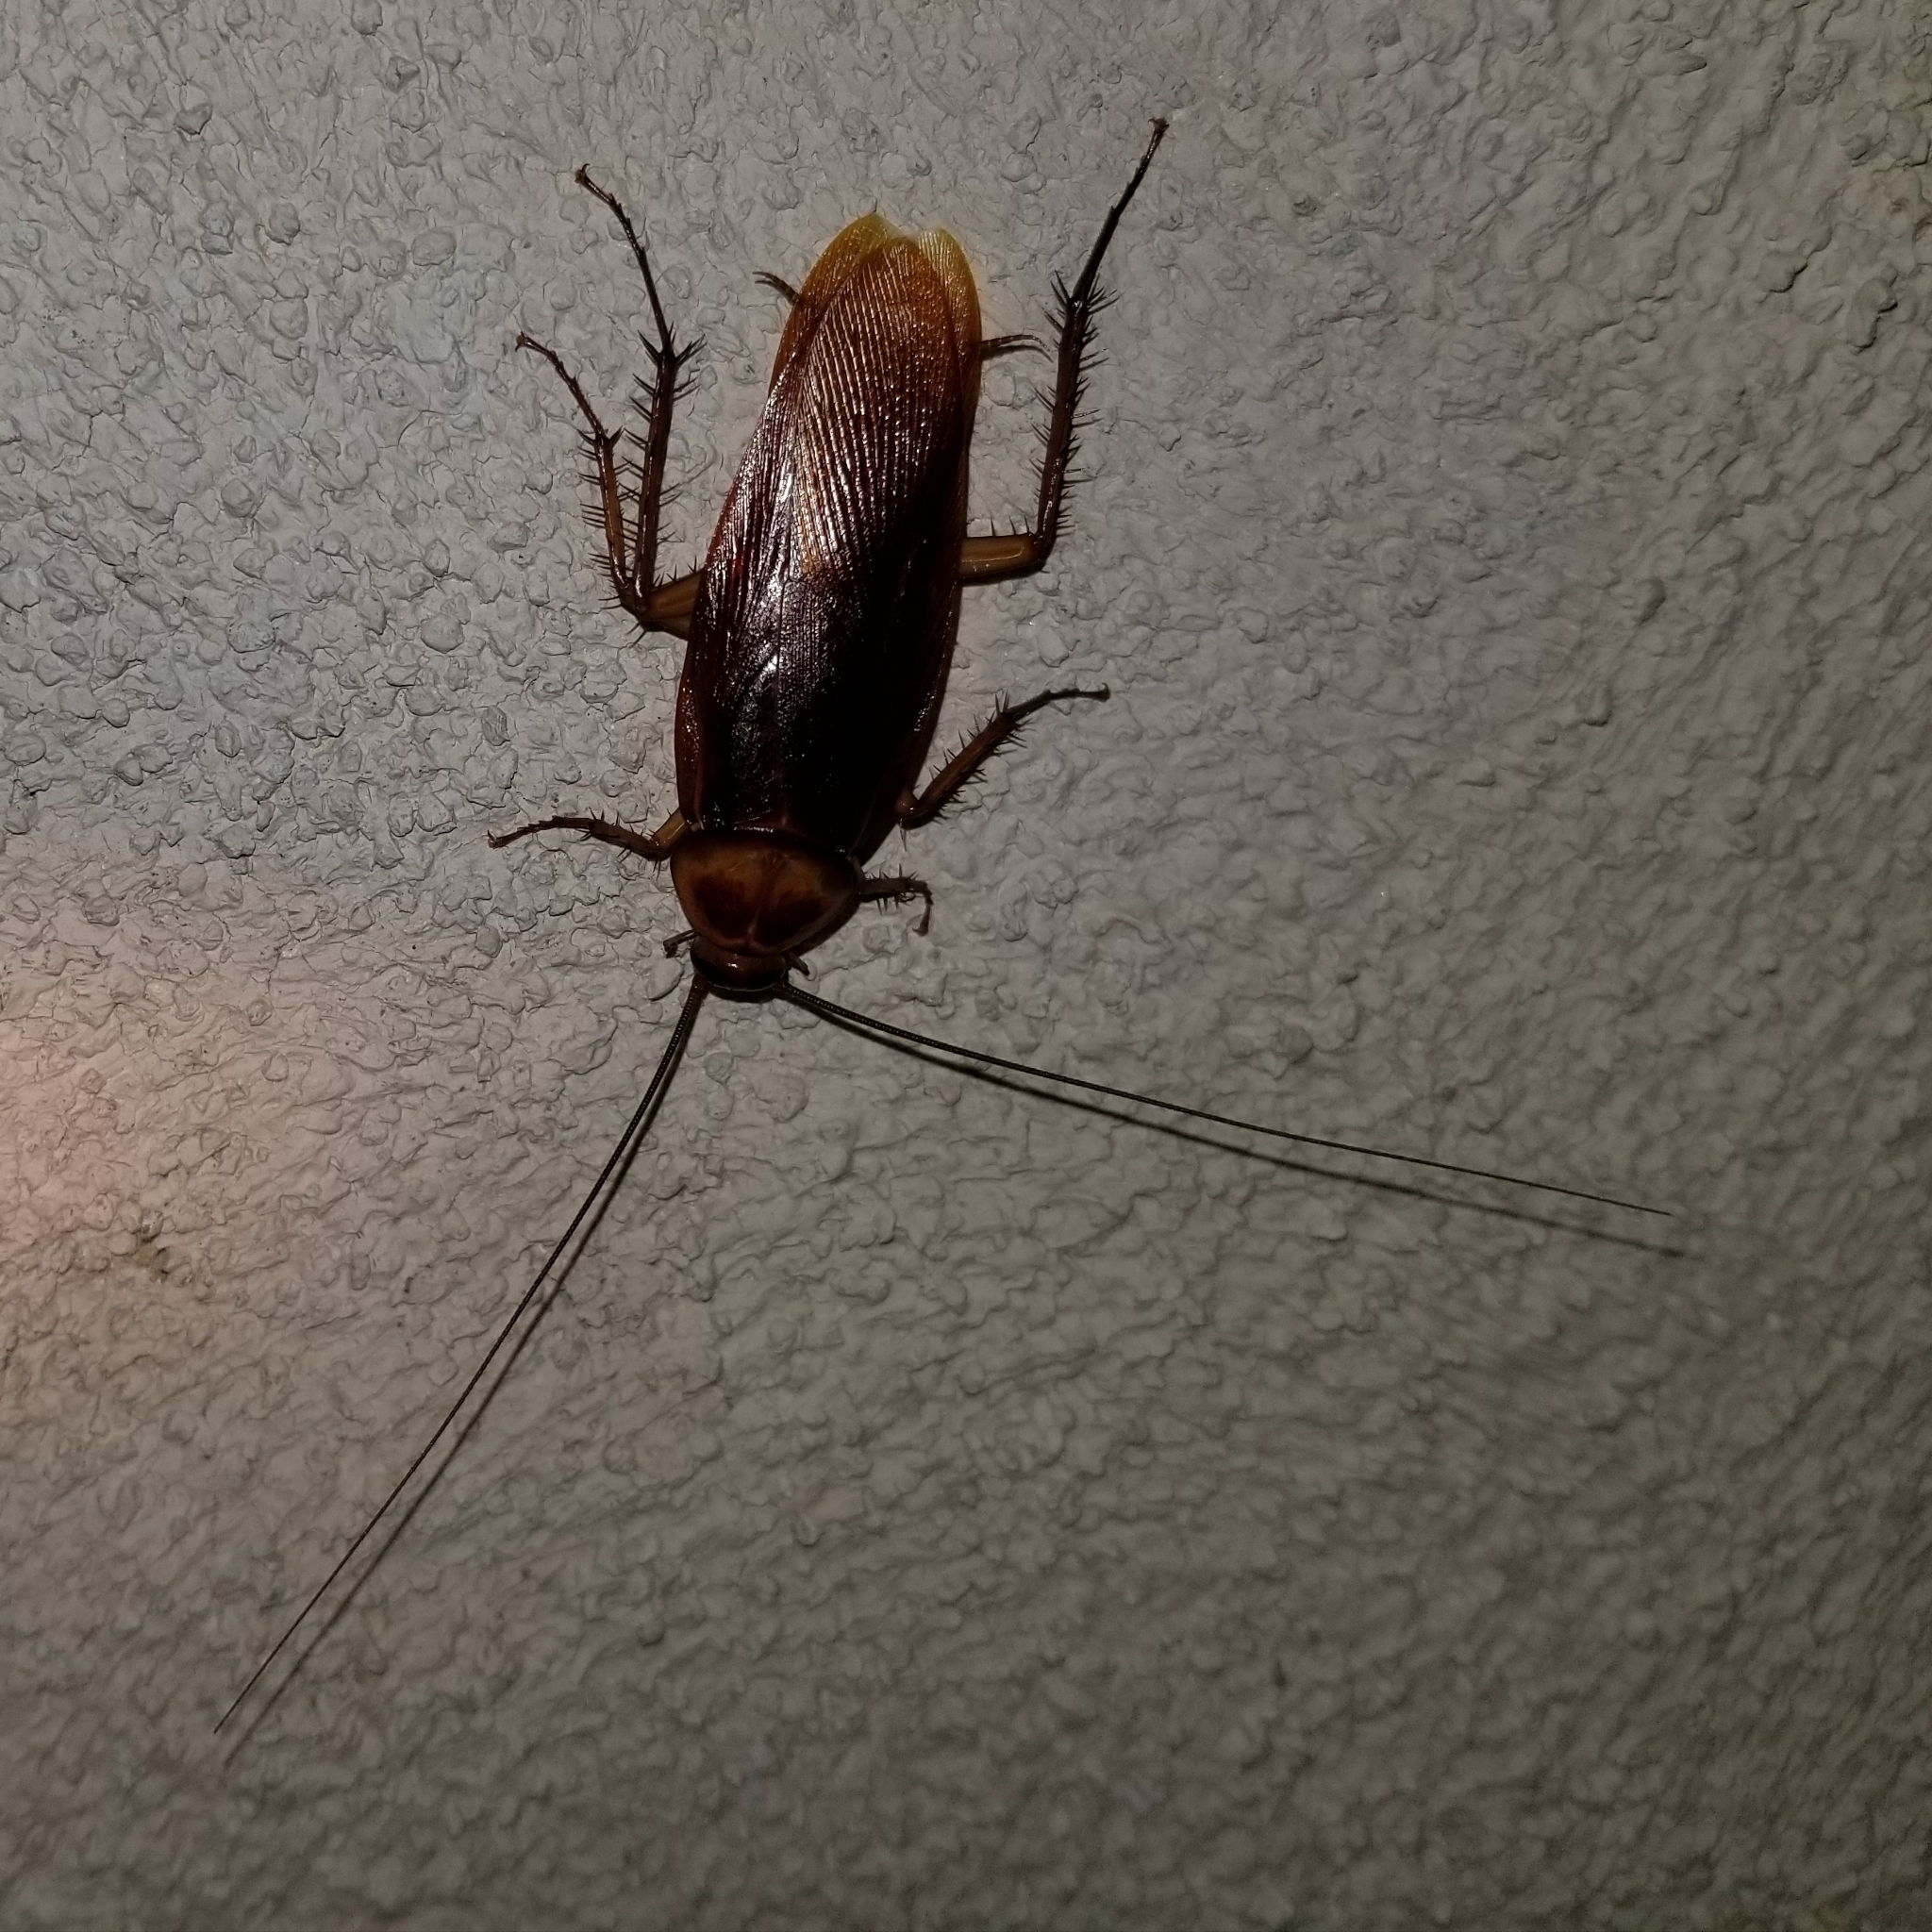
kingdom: Animalia
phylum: Arthropoda
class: Insecta
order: Blattodea
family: Blattidae
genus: Periplaneta
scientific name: Periplaneta americana
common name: American cockroach
